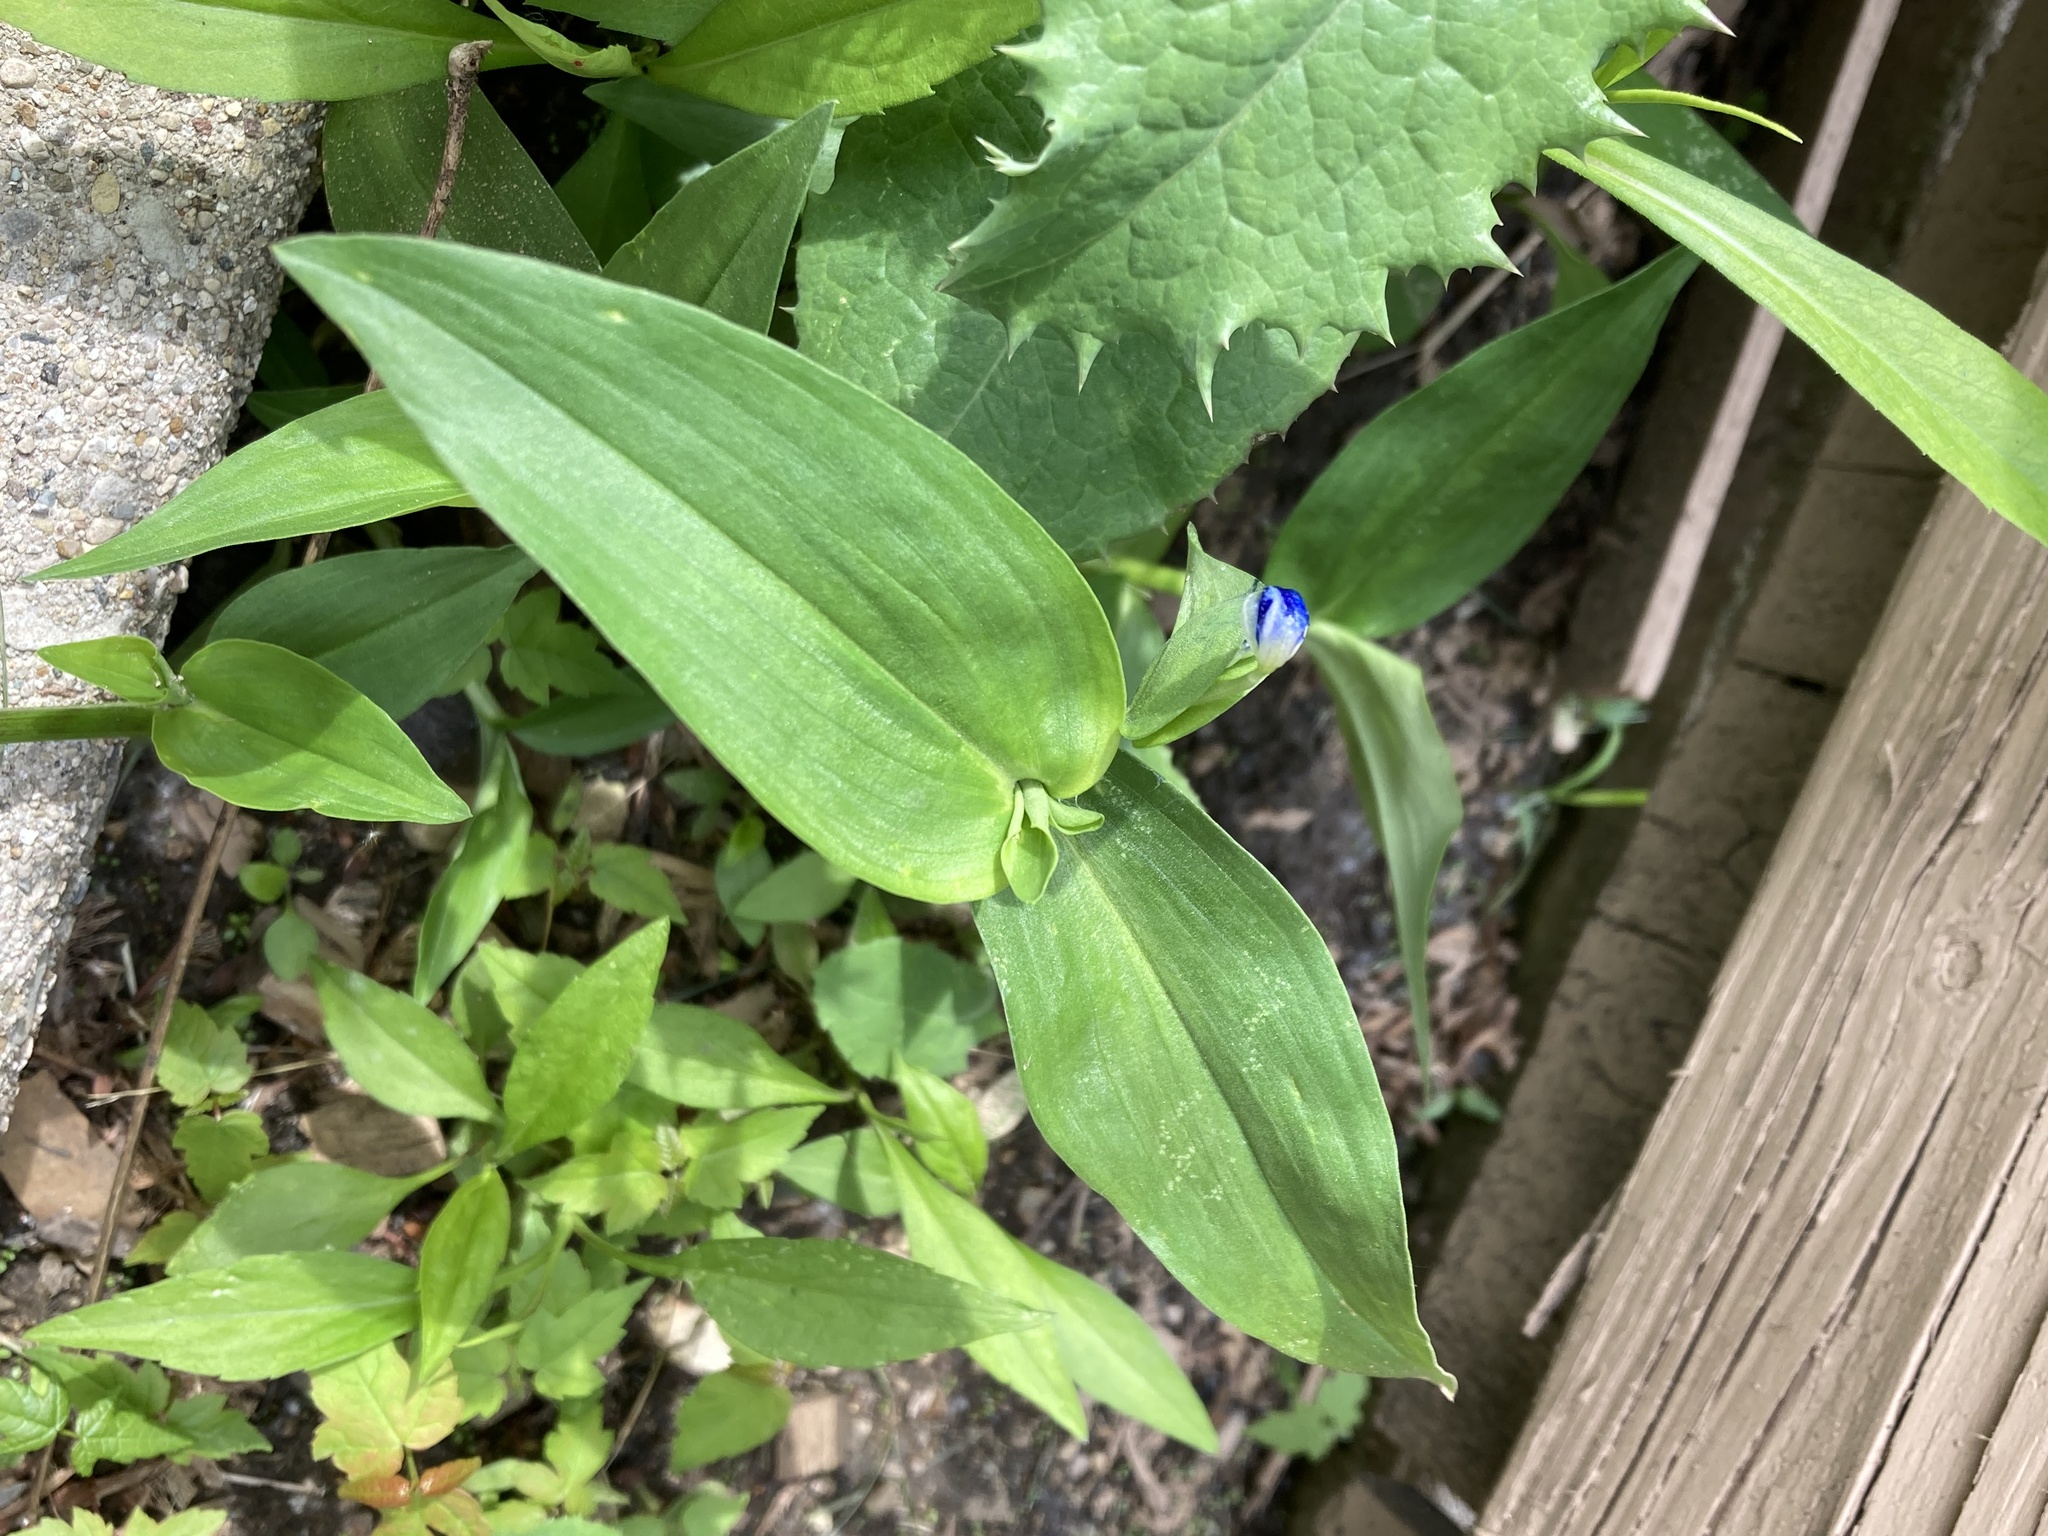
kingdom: Plantae
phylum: Tracheophyta
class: Liliopsida
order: Commelinales
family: Commelinaceae
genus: Commelina
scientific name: Commelina communis
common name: Asiatic dayflower
